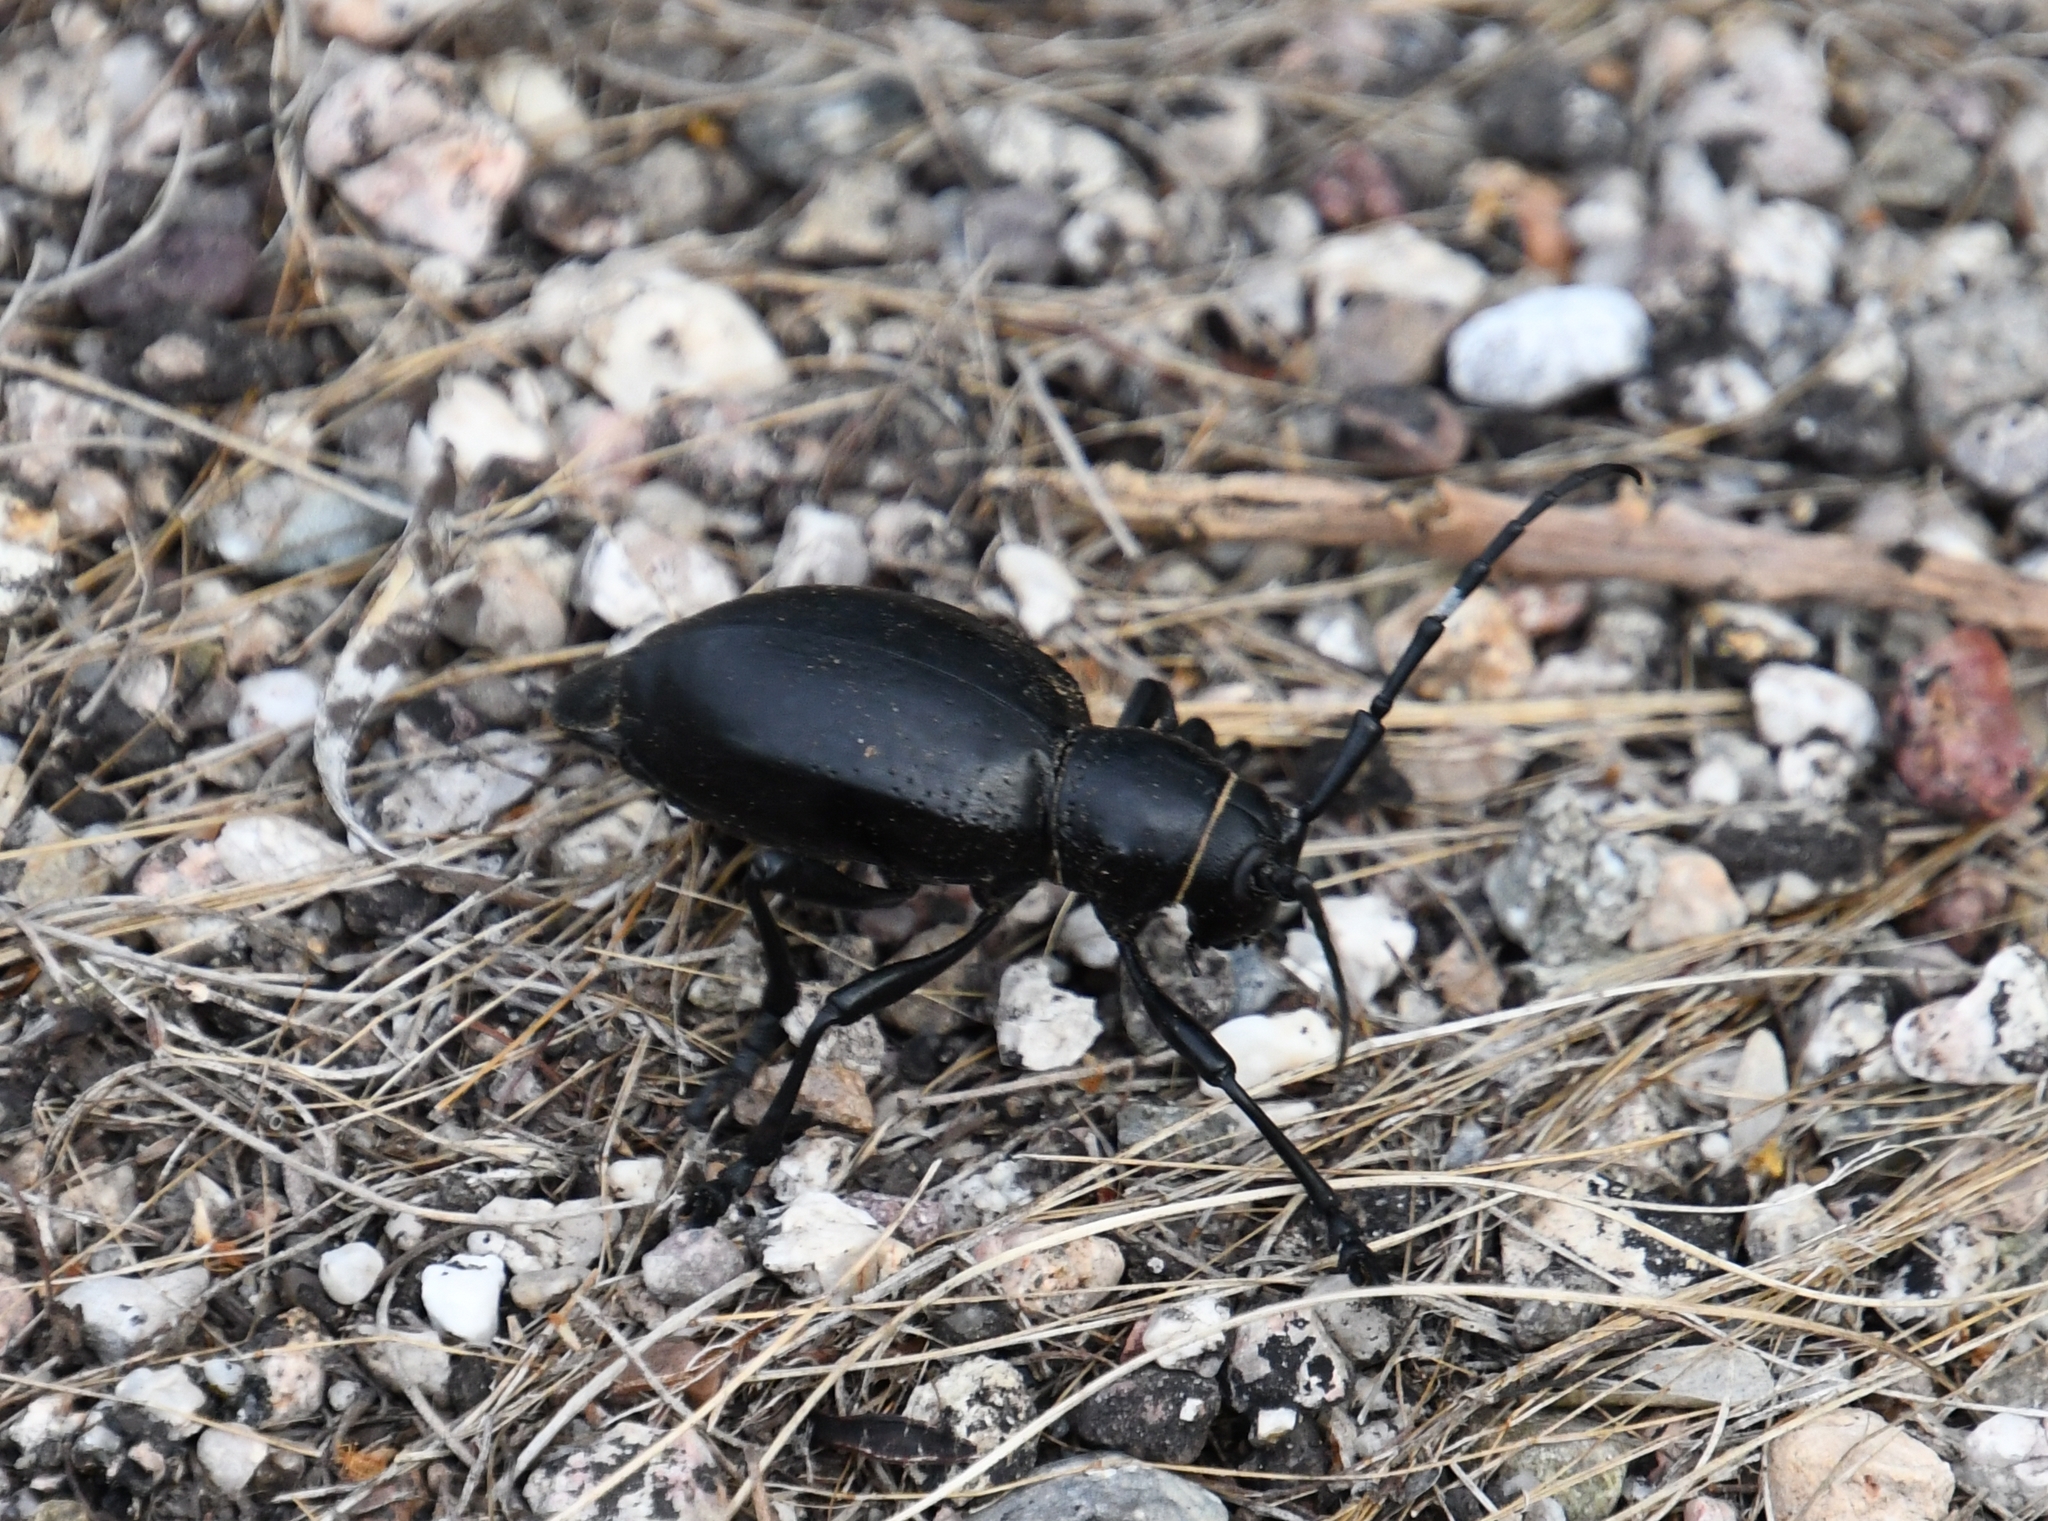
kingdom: Animalia
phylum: Arthropoda
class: Insecta
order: Coleoptera
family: Cerambycidae
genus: Moneilema
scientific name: Moneilema gigas
